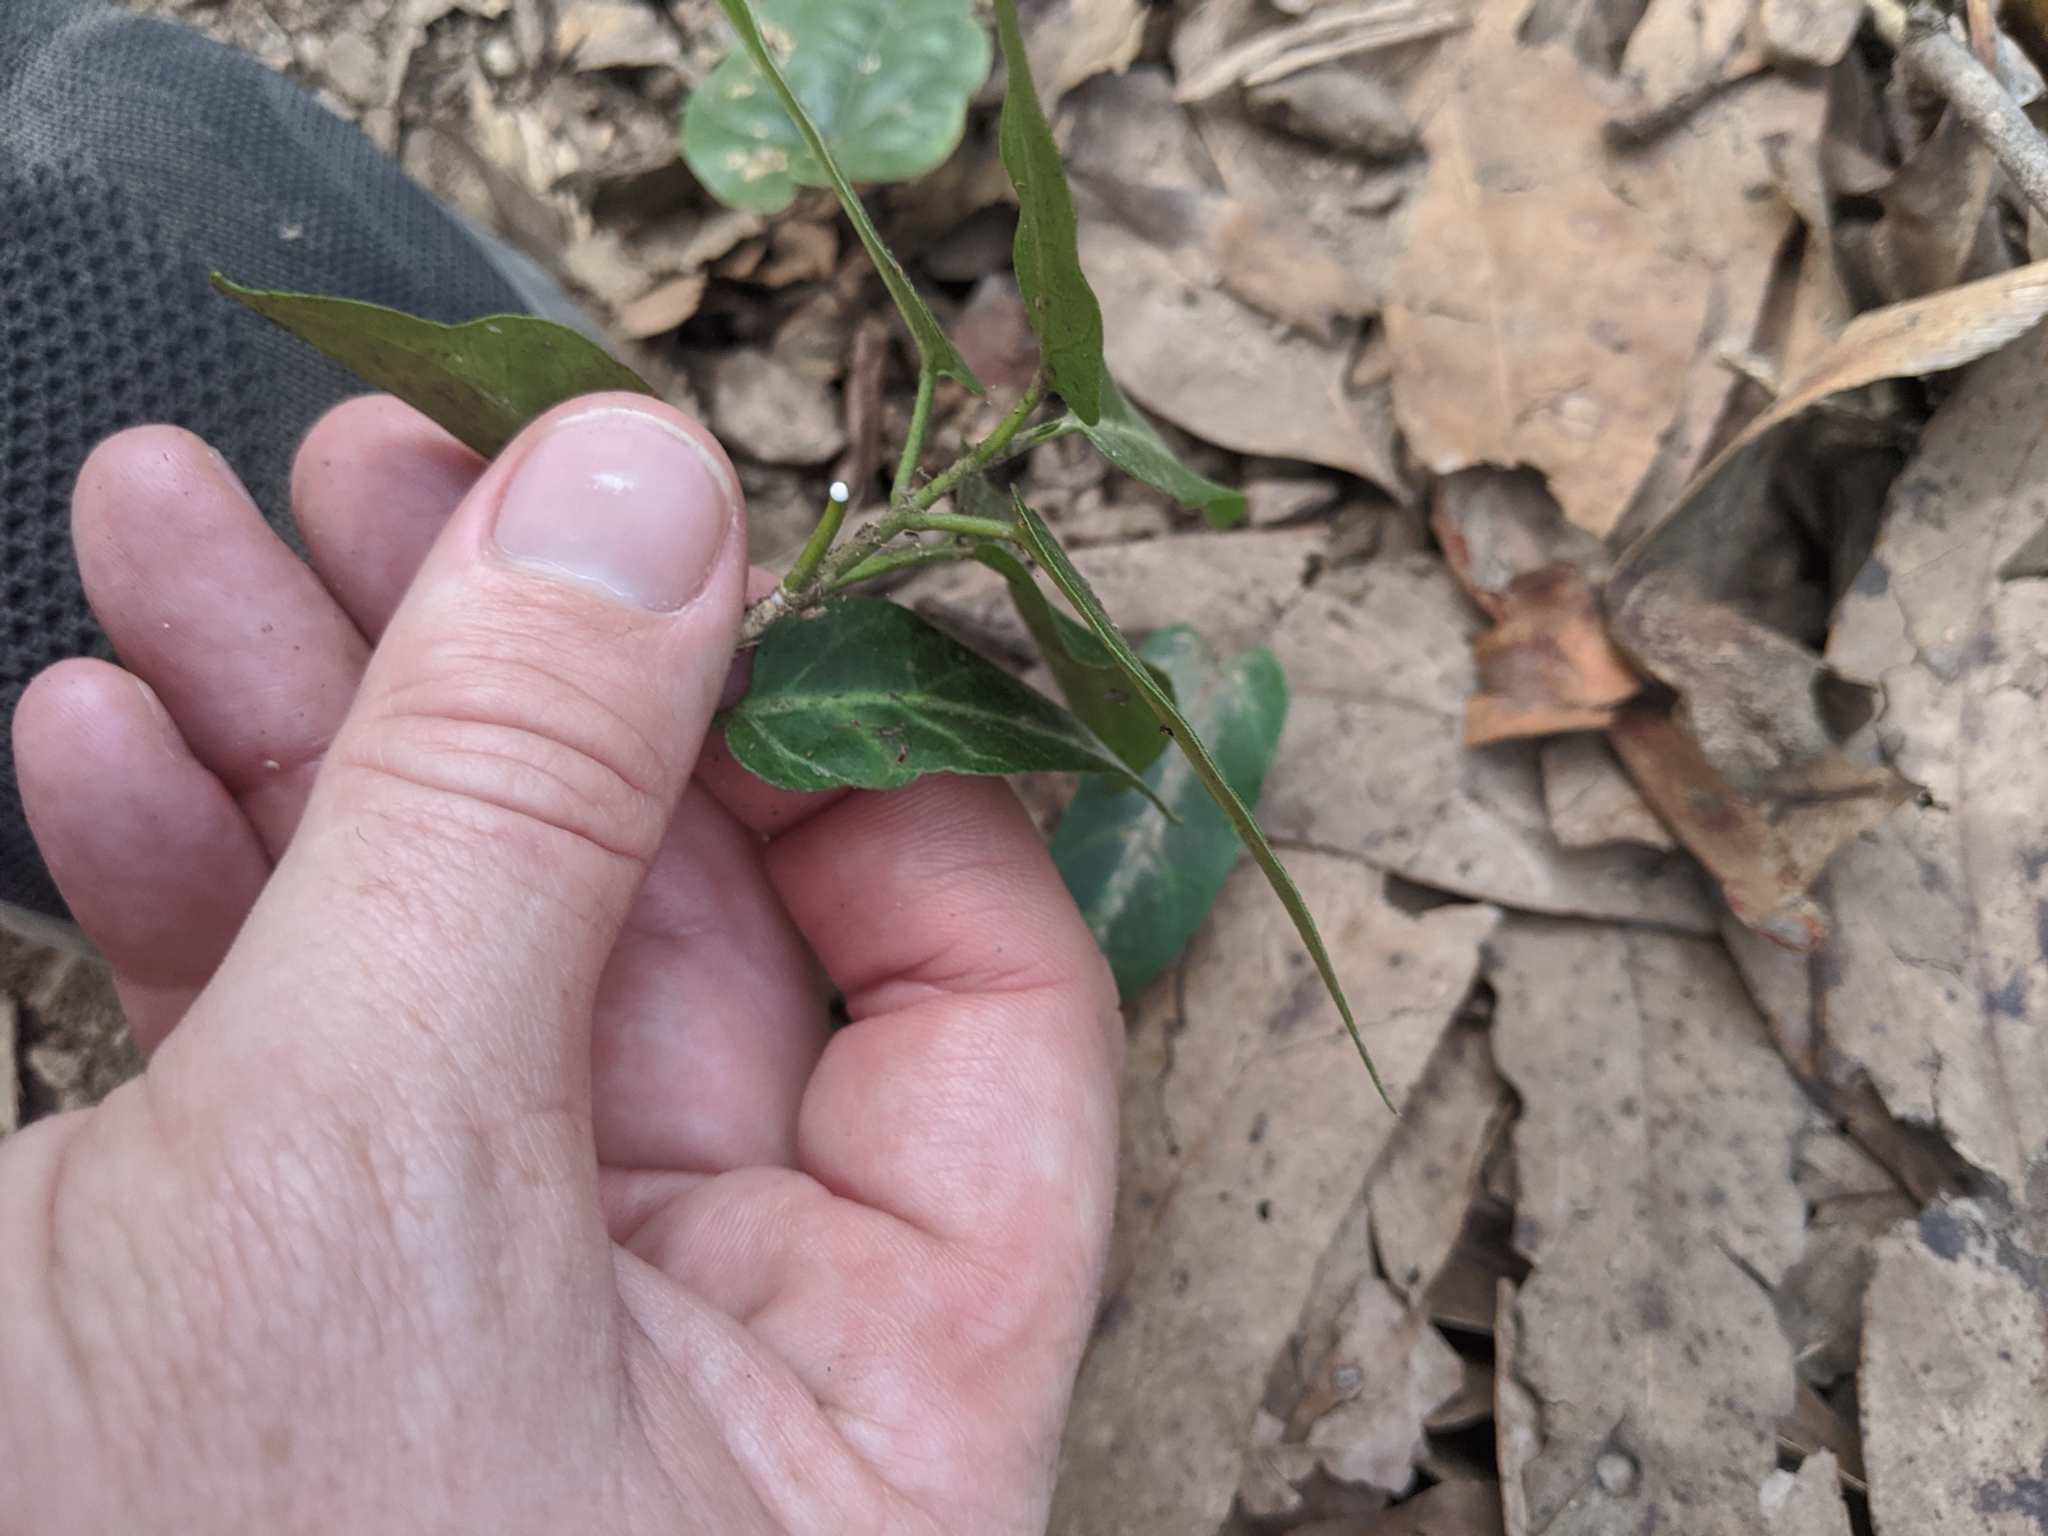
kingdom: Plantae
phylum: Tracheophyta
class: Magnoliopsida
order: Gentianales
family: Apocynaceae
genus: Leichhardtia
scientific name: Leichhardtia coronata
